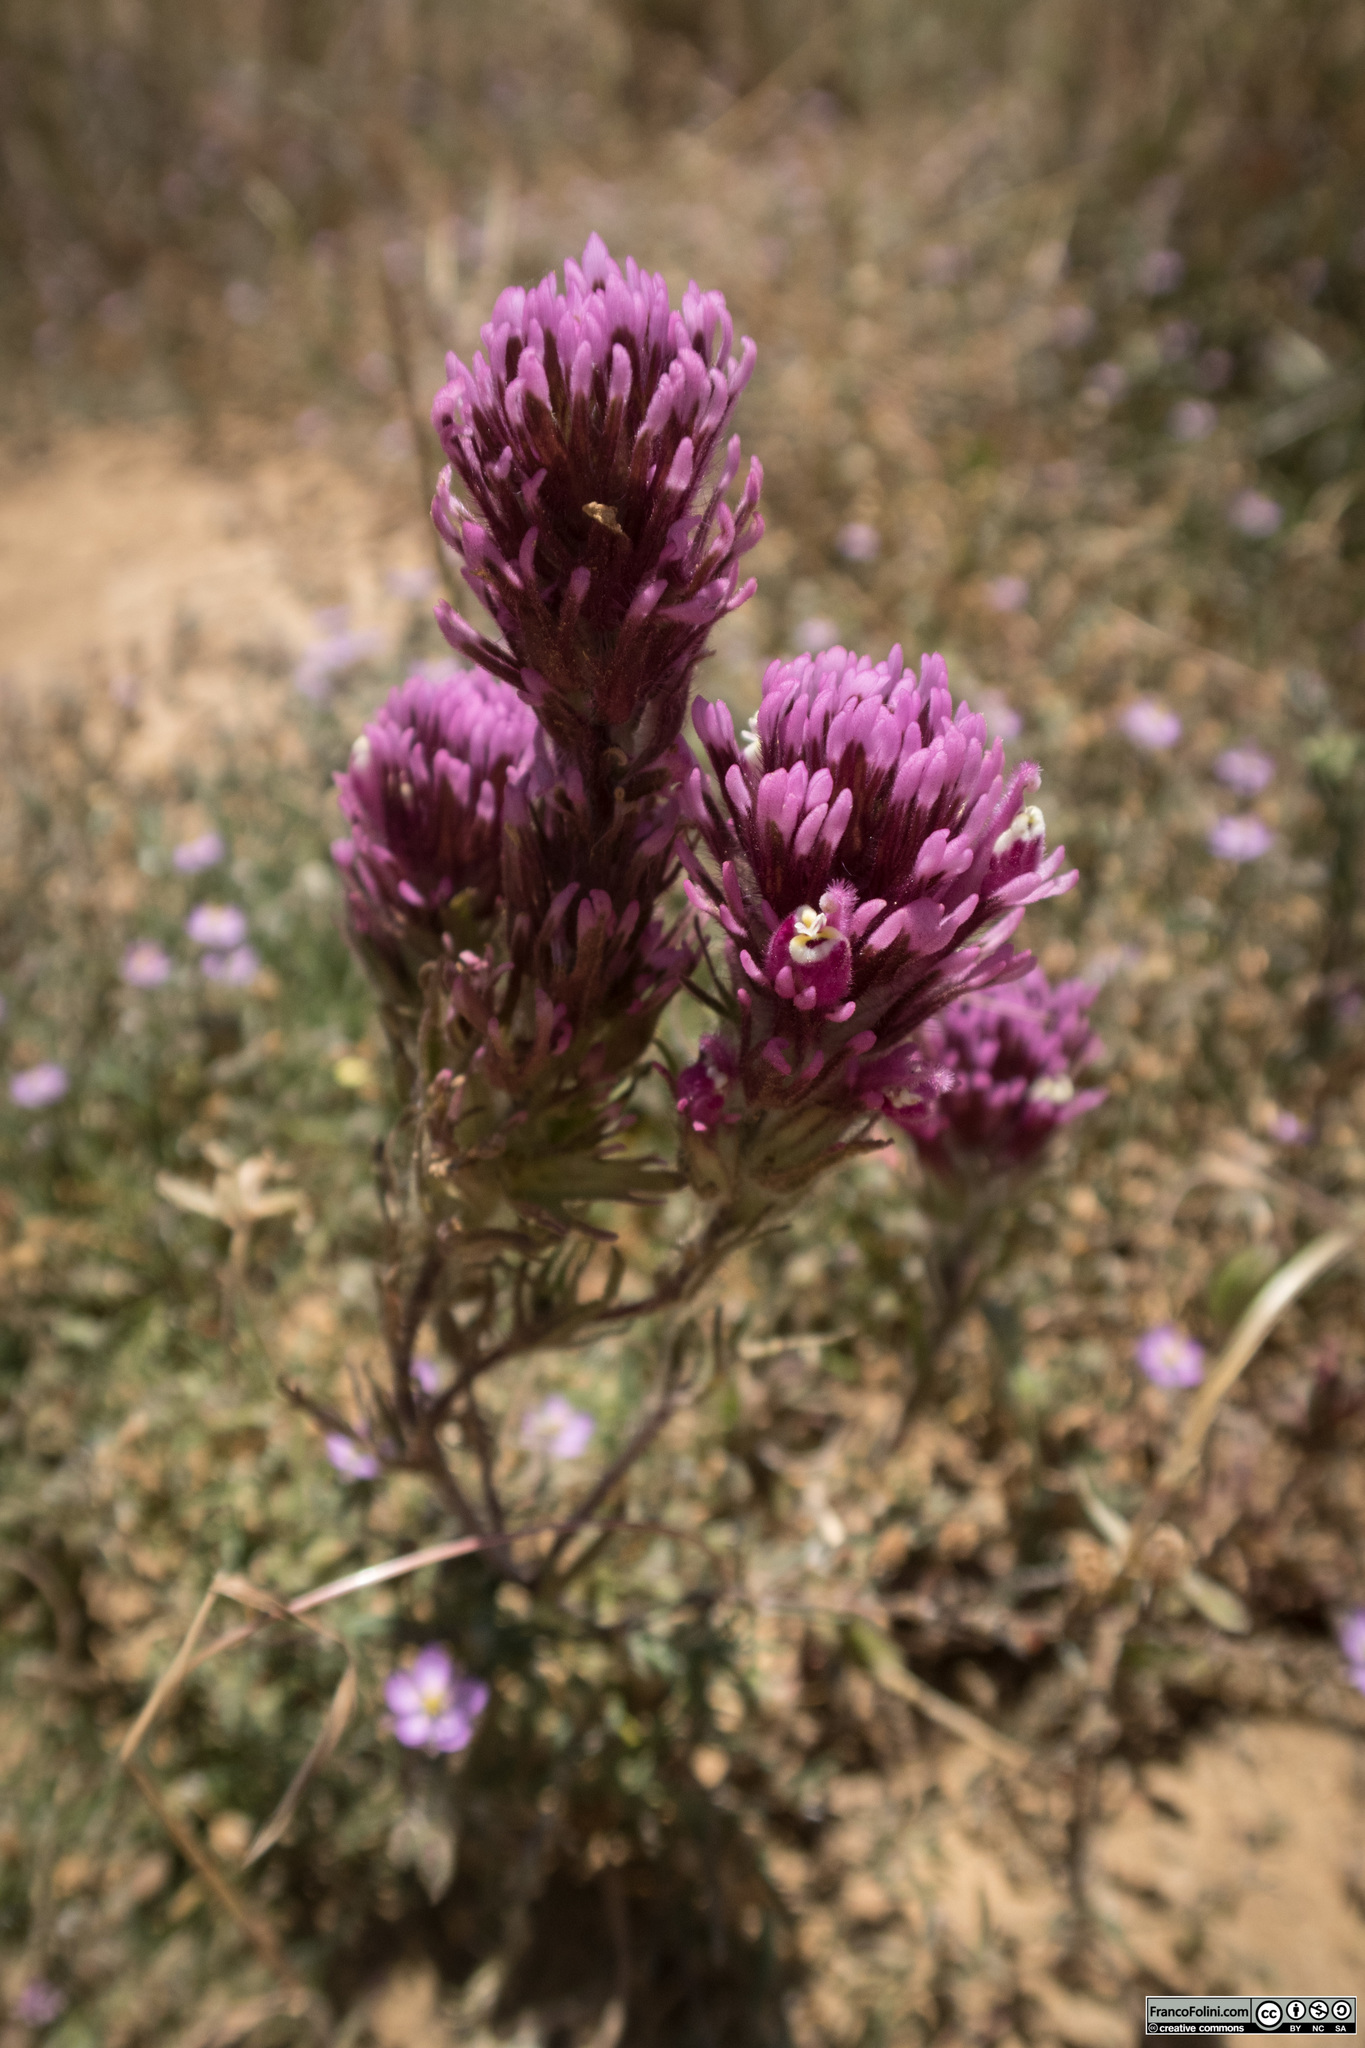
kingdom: Plantae
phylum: Tracheophyta
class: Magnoliopsida
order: Lamiales
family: Orobanchaceae
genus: Castilleja
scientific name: Castilleja exserta
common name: Purple owl-clover
